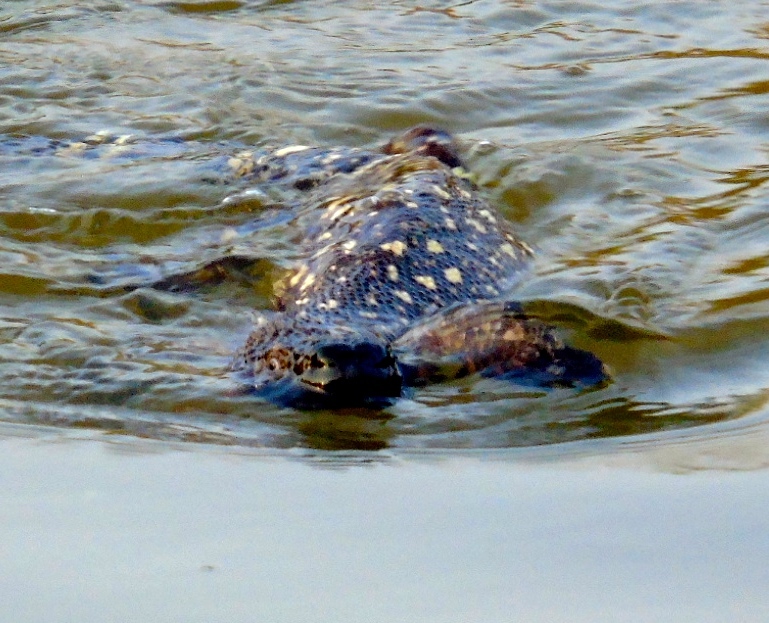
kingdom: Animalia
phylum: Chordata
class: Squamata
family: Helodermatidae
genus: Heloderma
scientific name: Heloderma horridum
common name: Mexican beaded lizard
